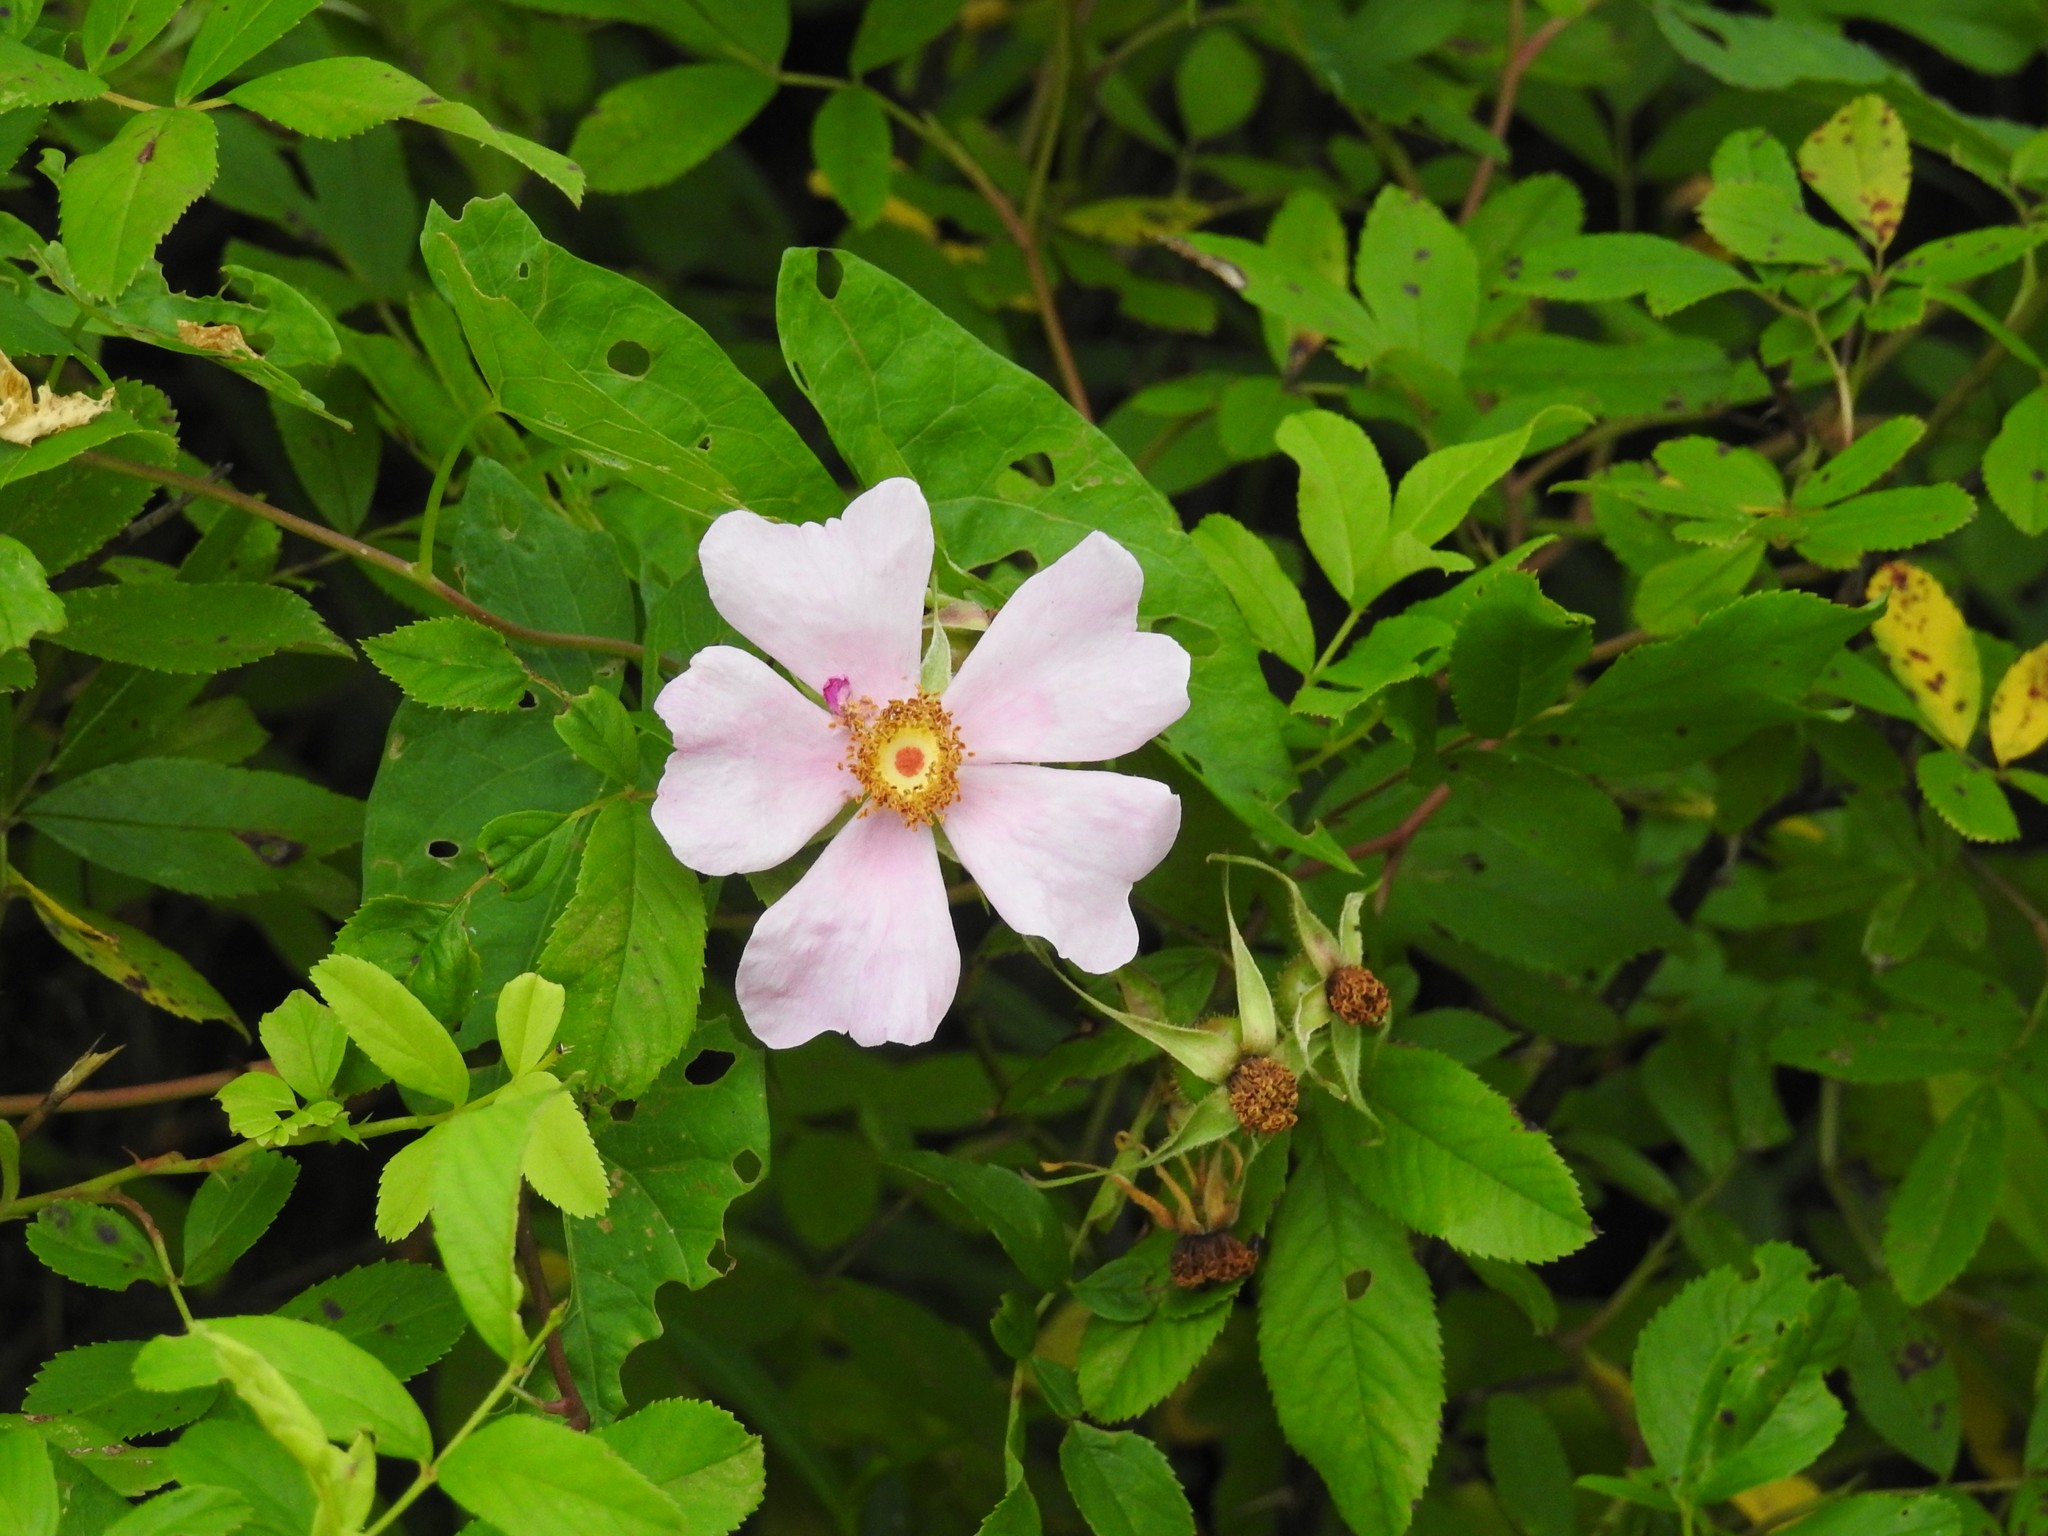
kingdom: Plantae
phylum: Tracheophyta
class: Magnoliopsida
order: Rosales
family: Rosaceae
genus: Rosa
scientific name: Rosa palustris
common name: Swamp rose
